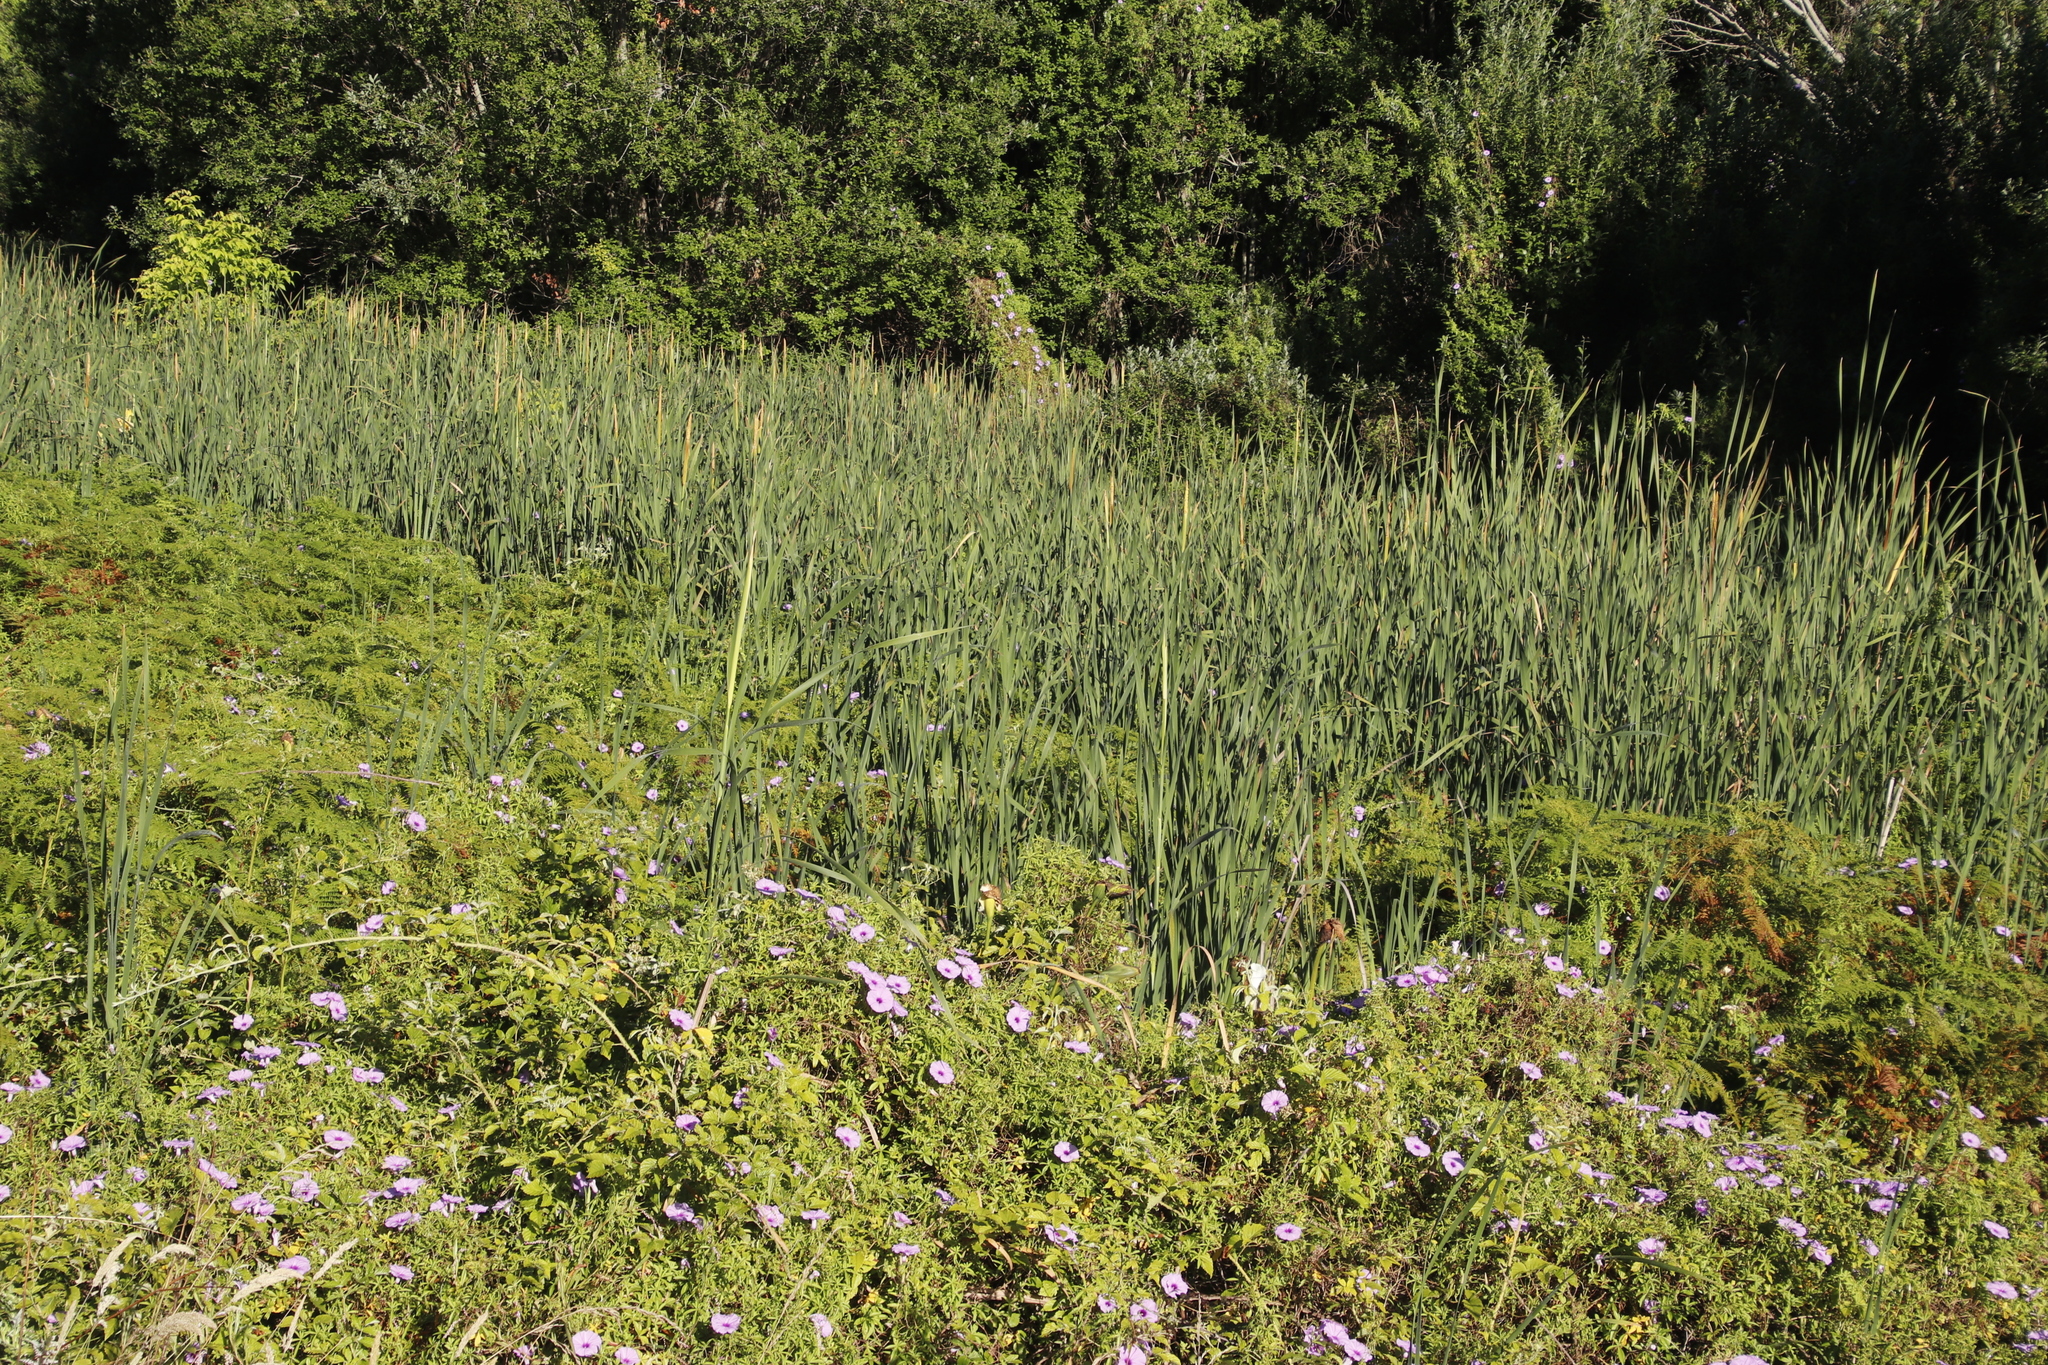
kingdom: Plantae
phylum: Tracheophyta
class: Liliopsida
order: Poales
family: Typhaceae
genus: Typha
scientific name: Typha capensis
